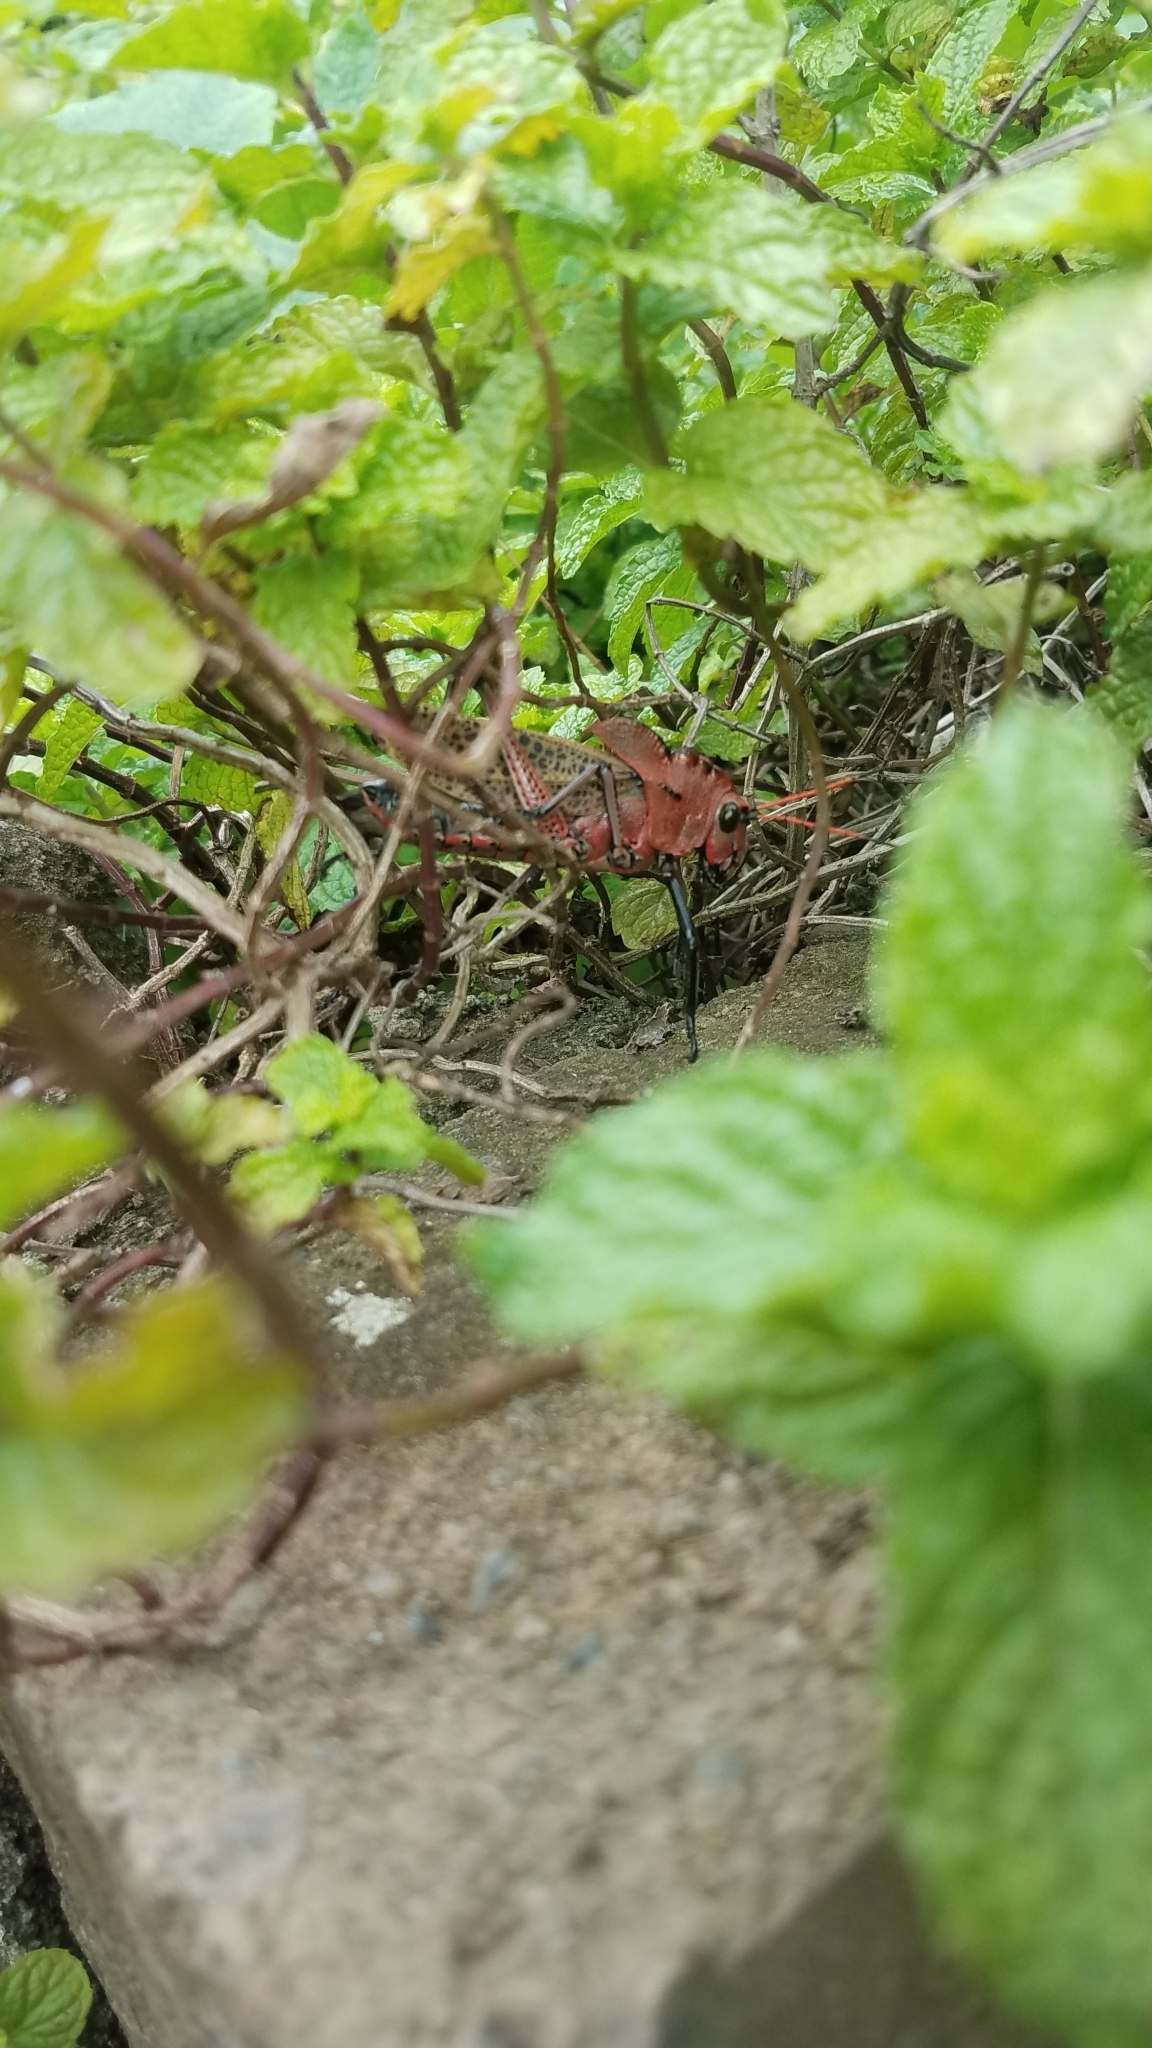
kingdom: Animalia
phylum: Arthropoda
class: Insecta
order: Orthoptera
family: Romaleidae
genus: Romalea
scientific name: Romalea
